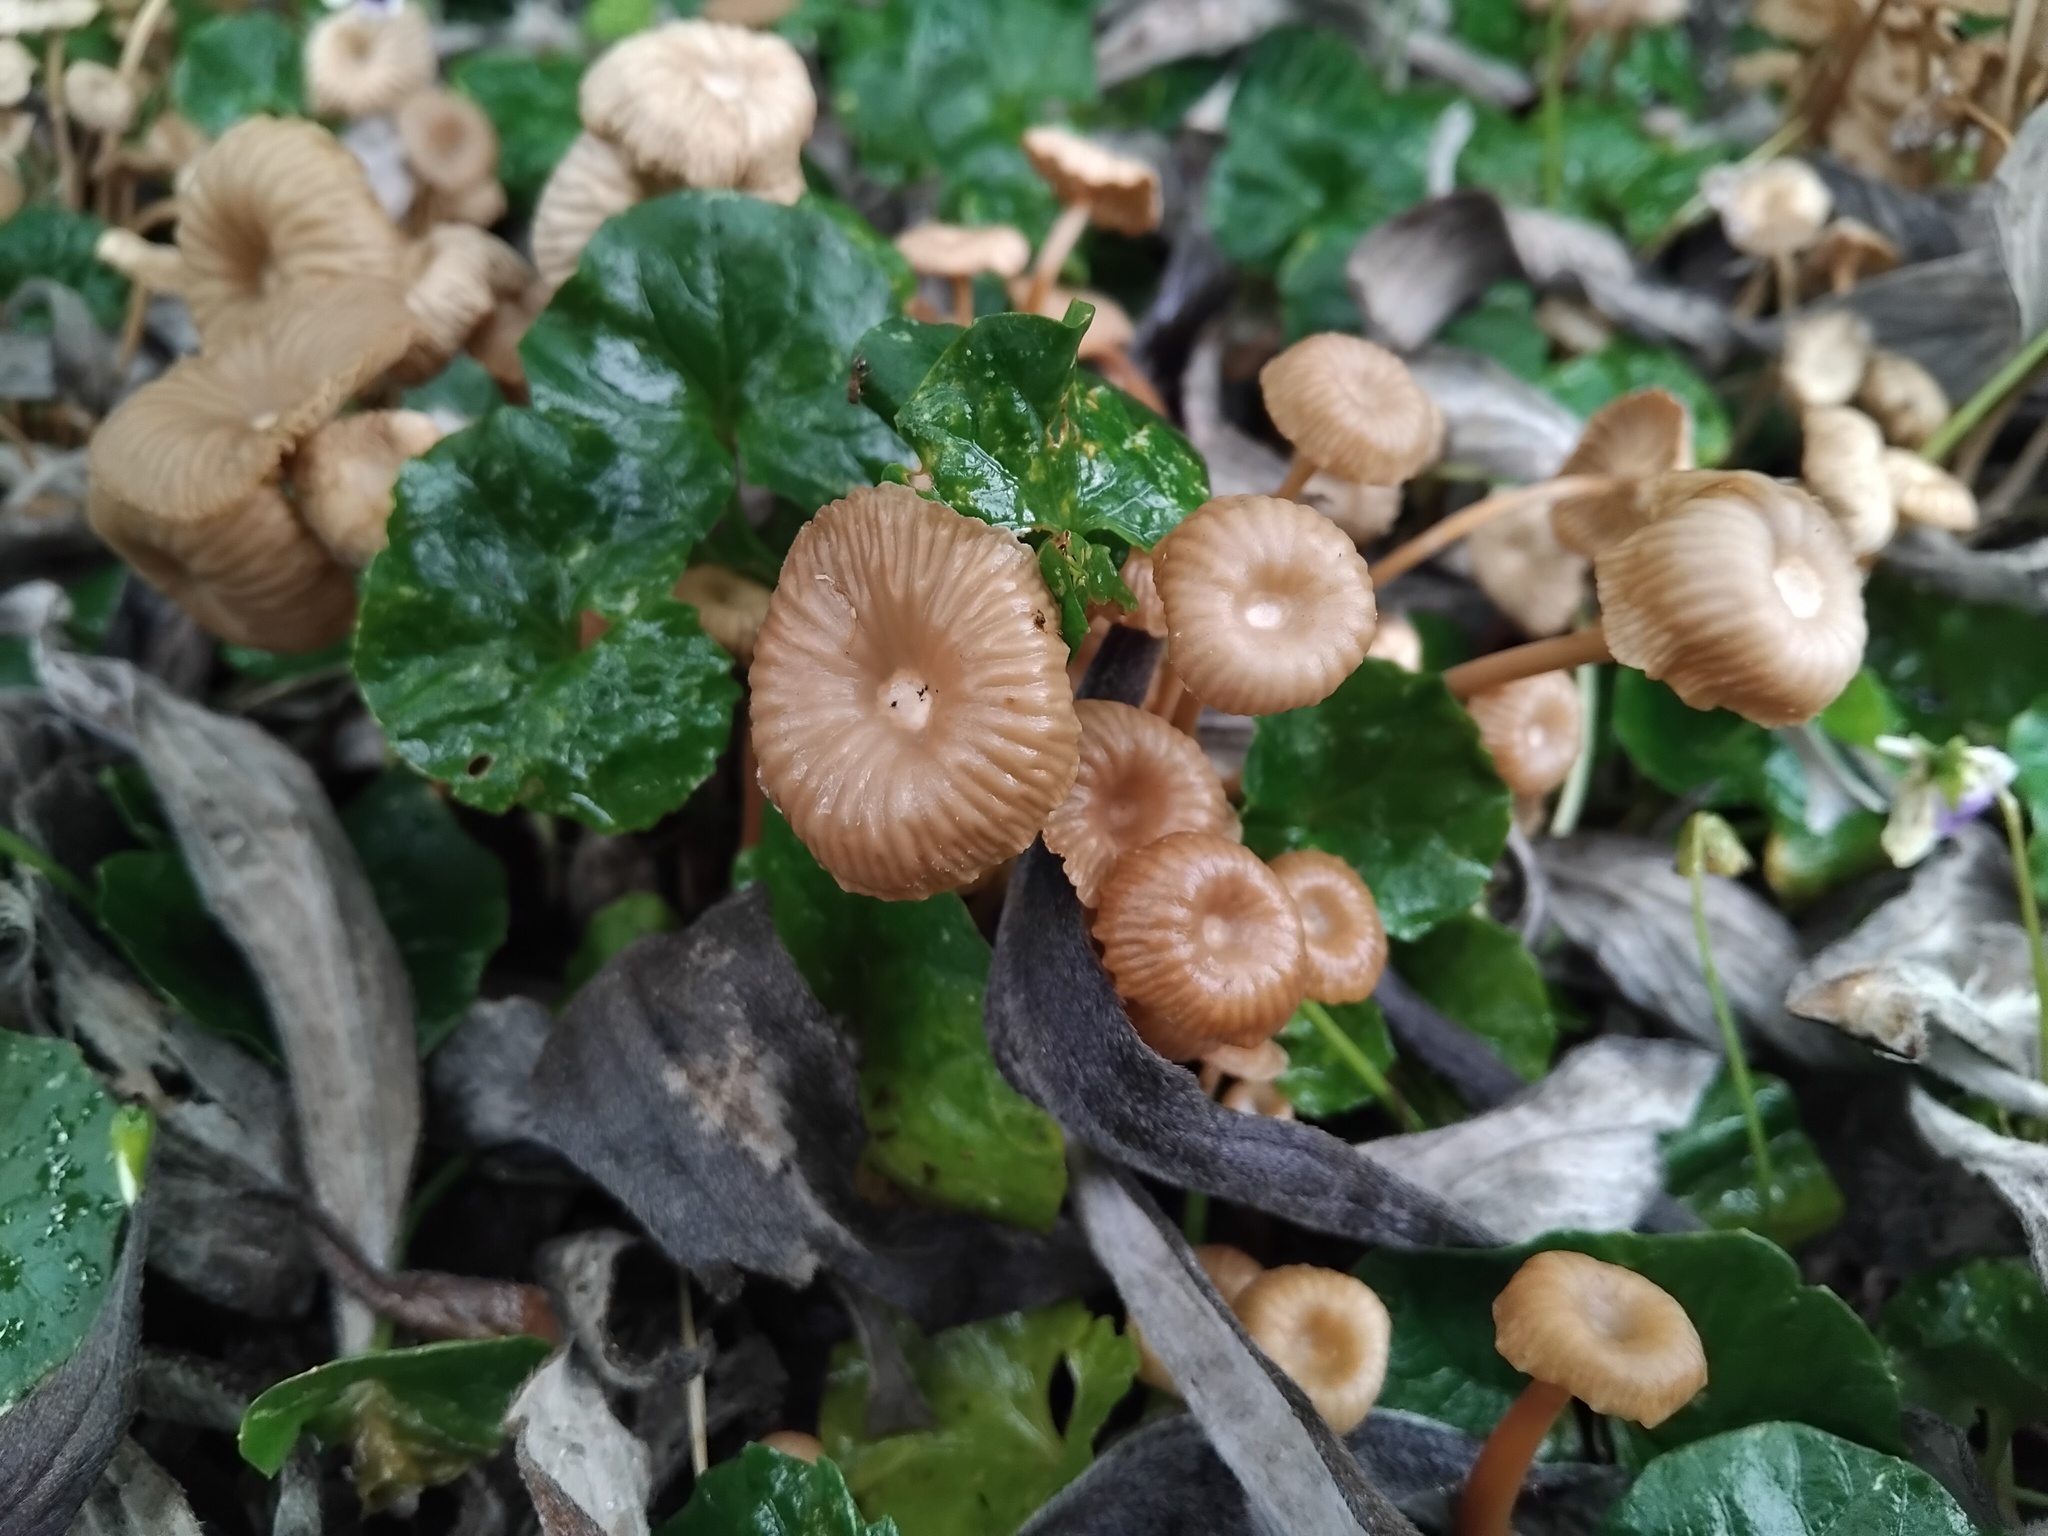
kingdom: Fungi
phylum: Basidiomycota
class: Agaricomycetes
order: Agaricales
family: Tricholomataceae
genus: Collybia
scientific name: Collybia kurara
